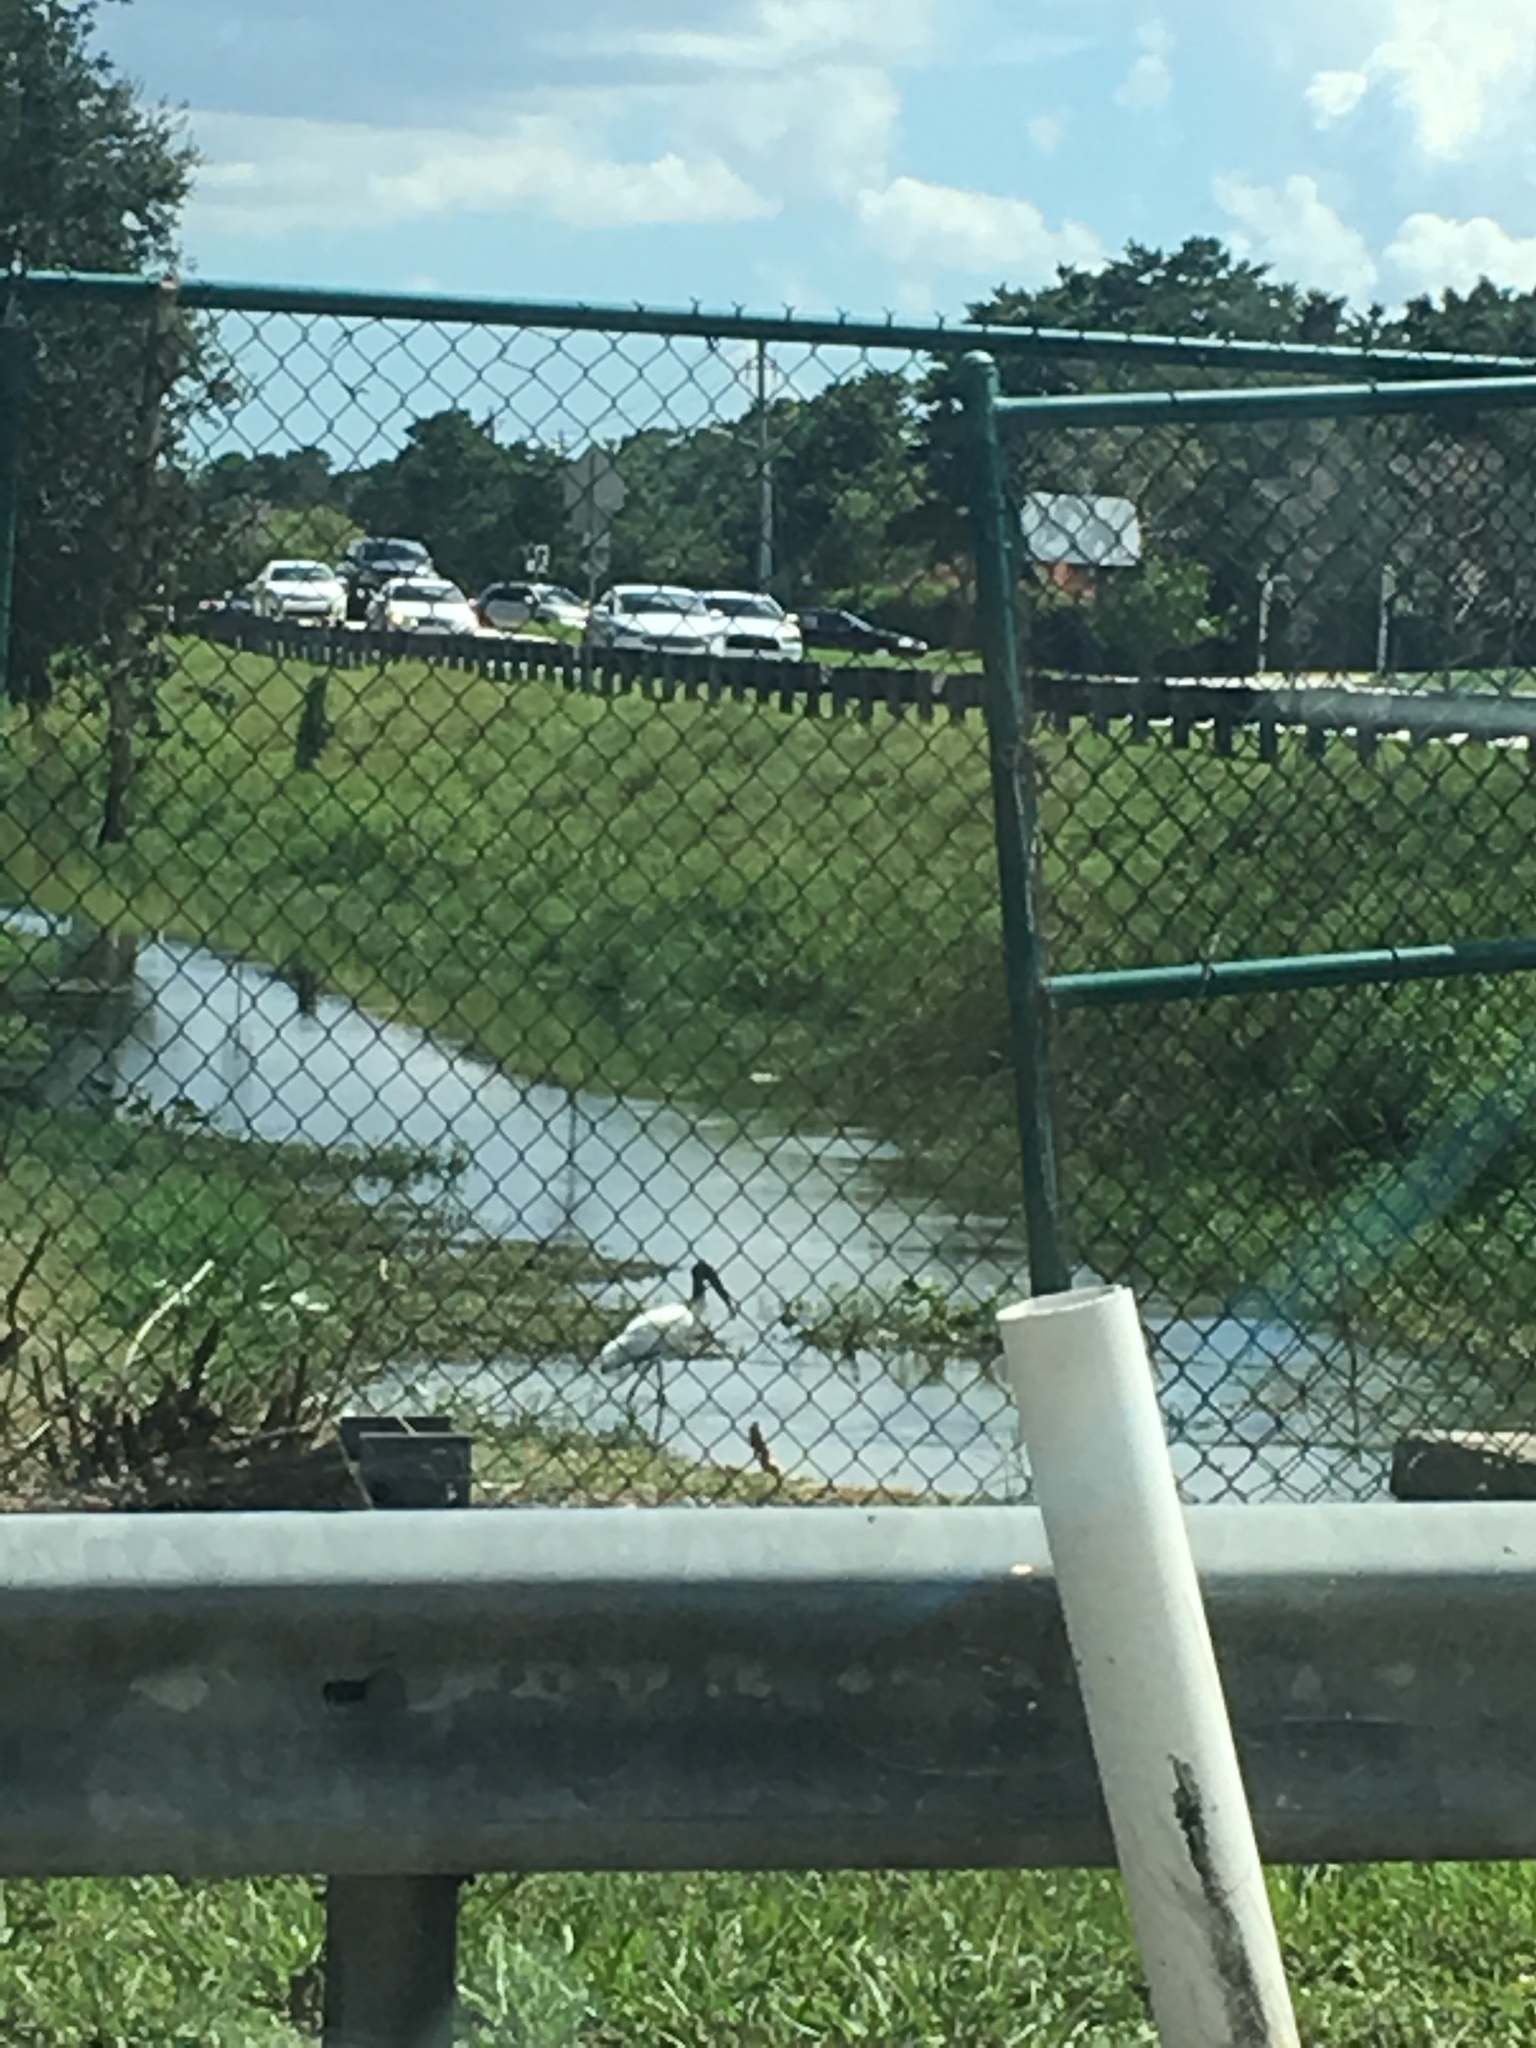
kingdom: Animalia
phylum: Chordata
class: Aves
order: Ciconiiformes
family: Ciconiidae
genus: Mycteria
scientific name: Mycteria americana
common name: Wood stork
